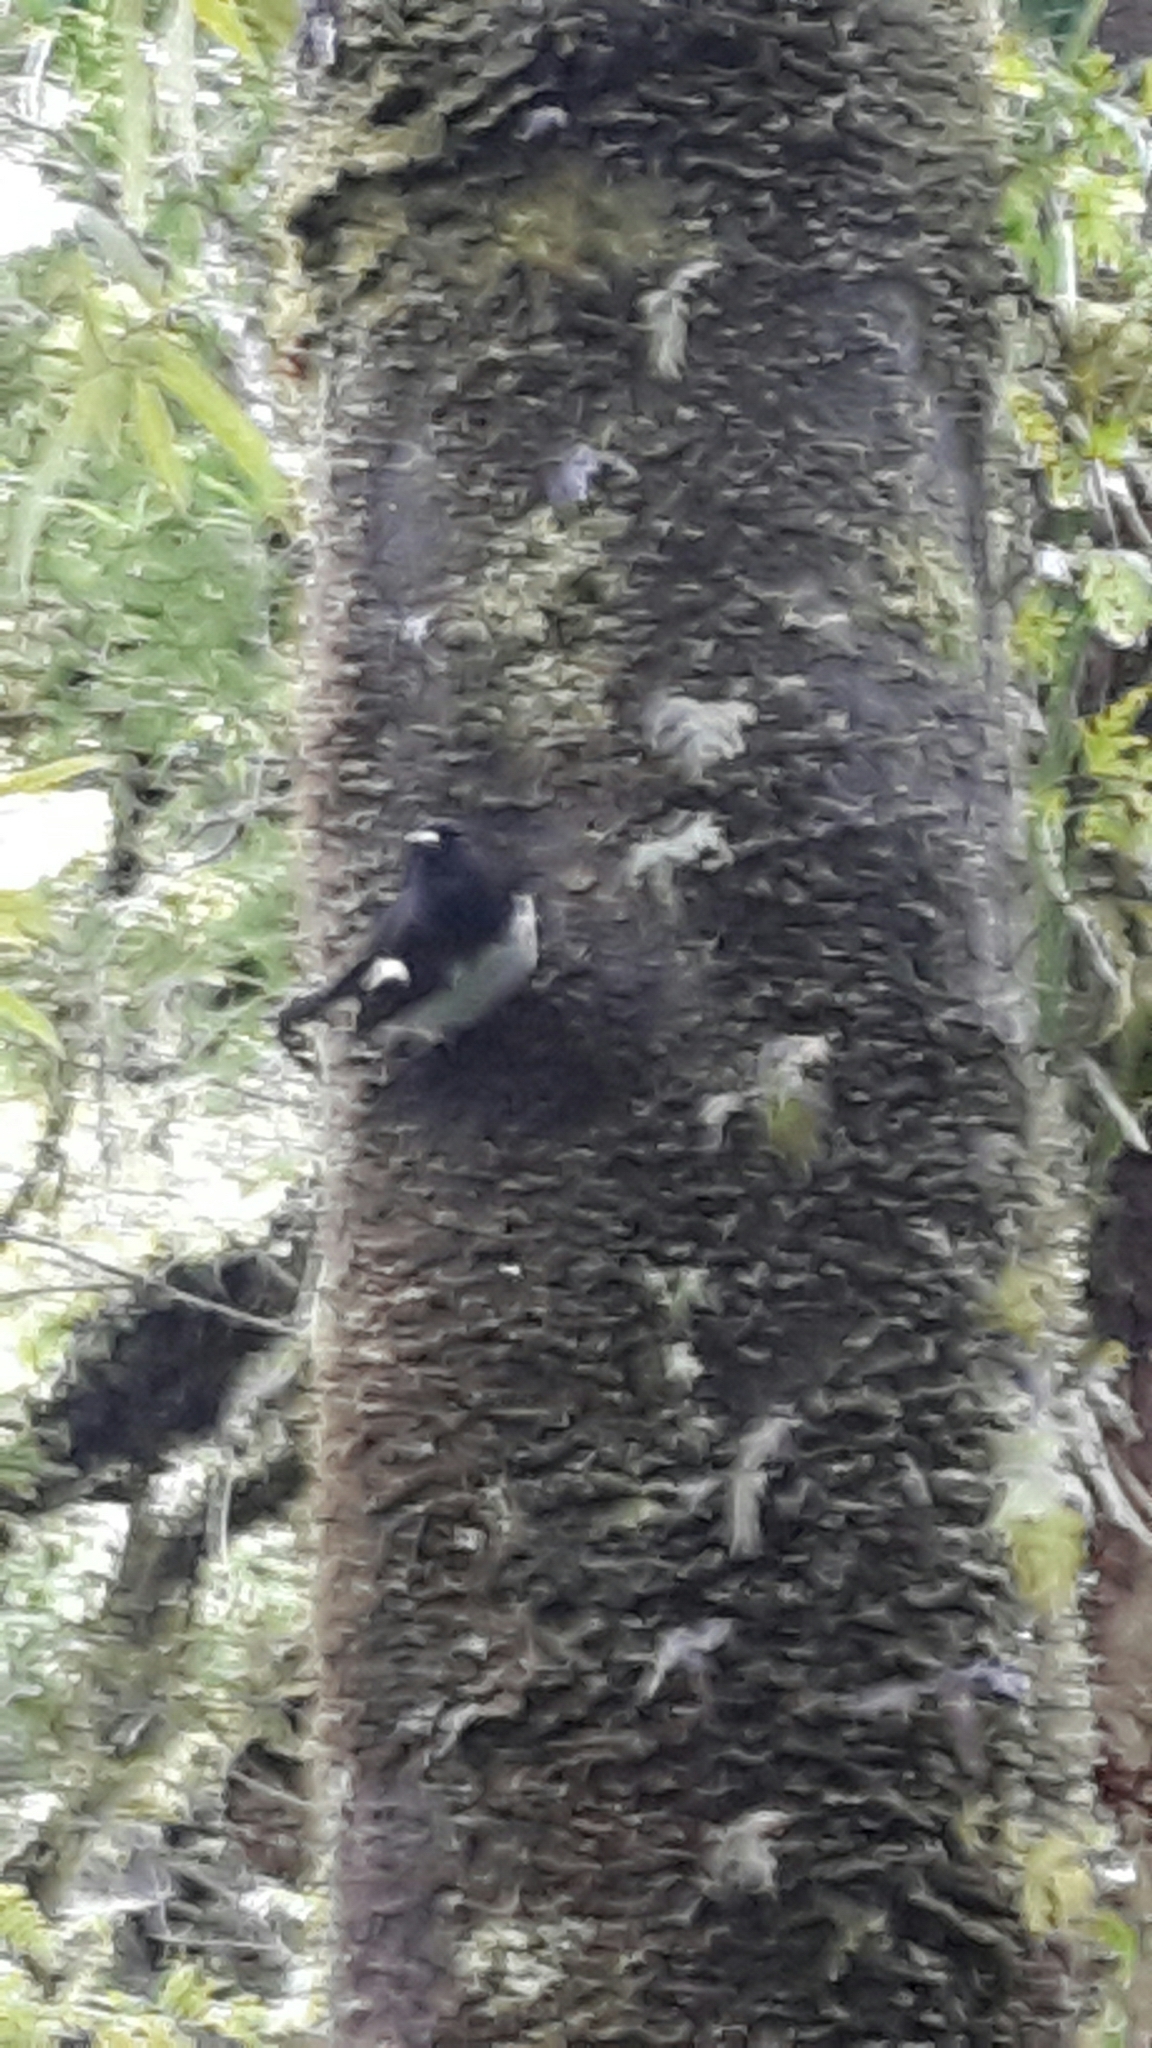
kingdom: Animalia
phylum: Chordata
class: Aves
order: Passeriformes
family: Petroicidae
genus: Petroica
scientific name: Petroica macrocephala
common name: Tomtit
